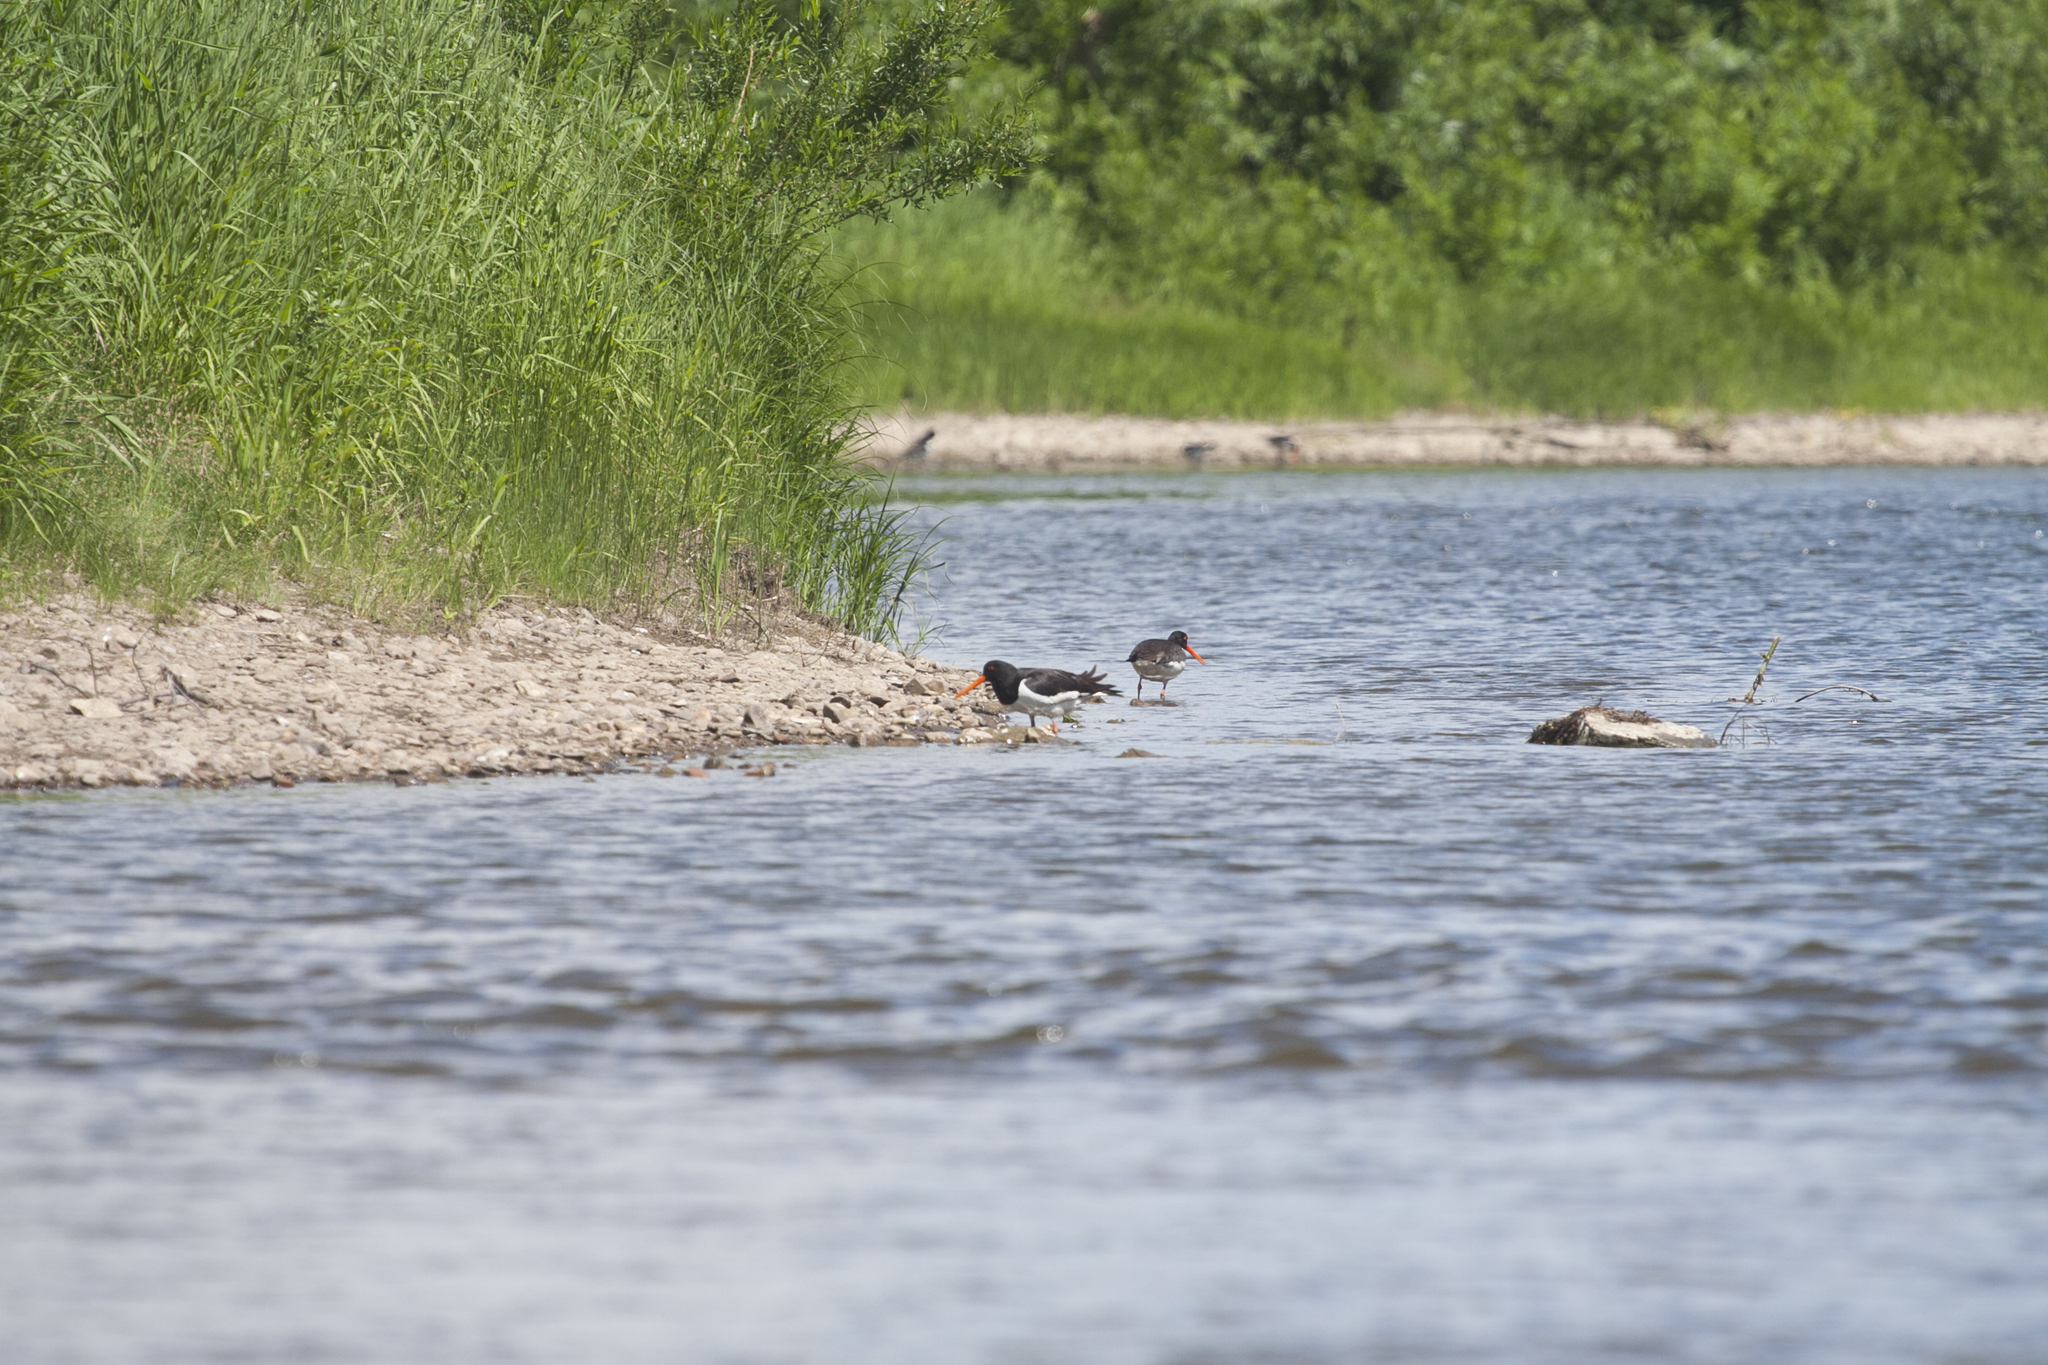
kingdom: Animalia
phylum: Chordata
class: Aves
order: Charadriiformes
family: Haematopodidae
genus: Haematopus
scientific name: Haematopus ostralegus
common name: Eurasian oystercatcher
